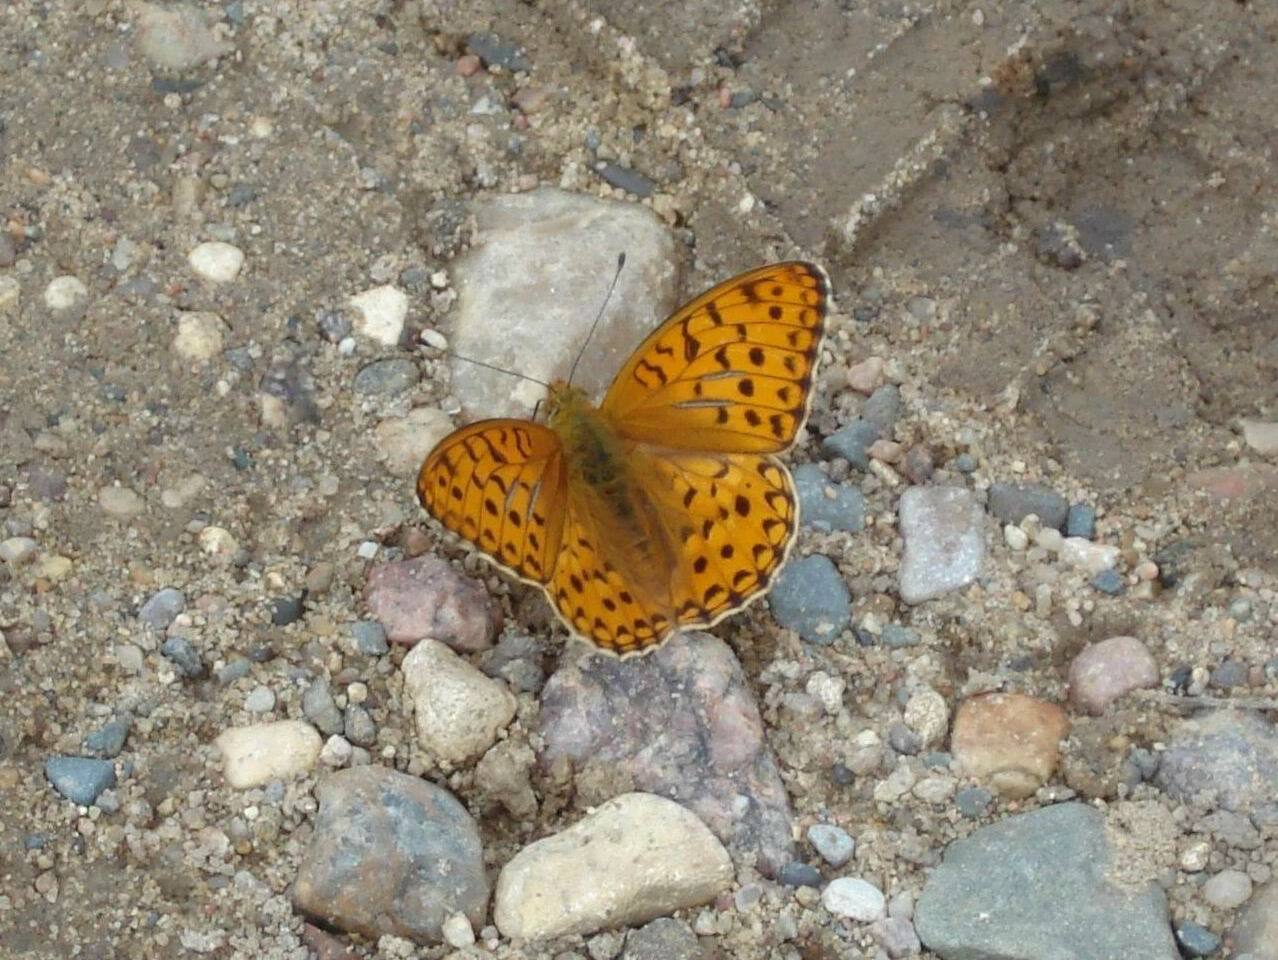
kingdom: Animalia
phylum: Arthropoda
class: Insecta
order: Lepidoptera
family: Nymphalidae
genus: Fabriciana
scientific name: Fabriciana adippe
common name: High brown fritillary
